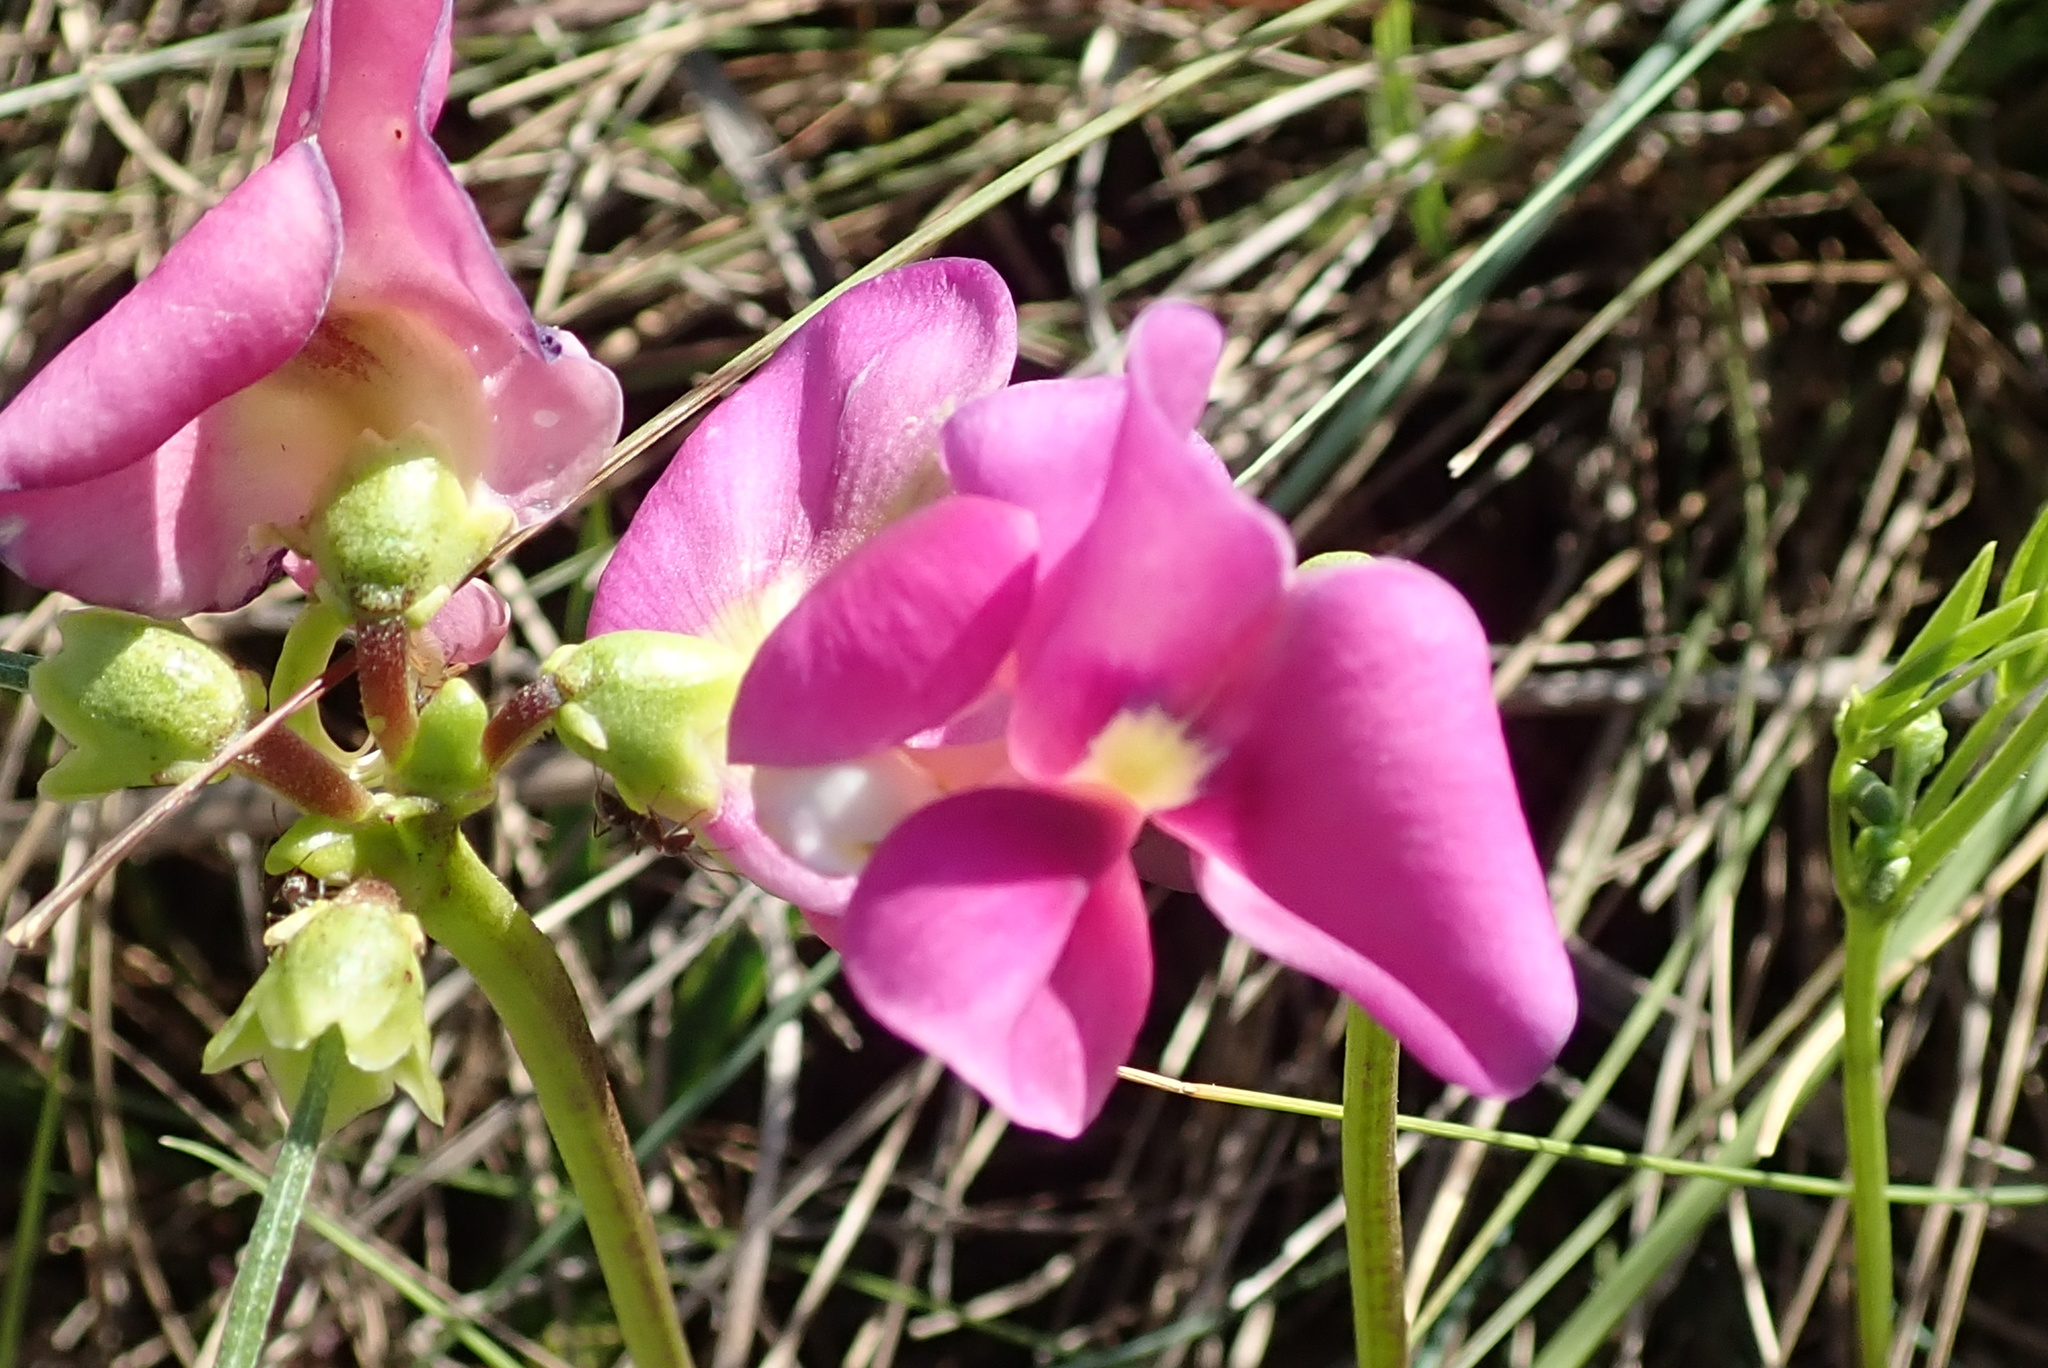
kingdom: Plantae
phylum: Tracheophyta
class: Magnoliopsida
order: Fabales
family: Fabaceae
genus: Vigna
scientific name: Vigna vexillata
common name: Zombi pea
